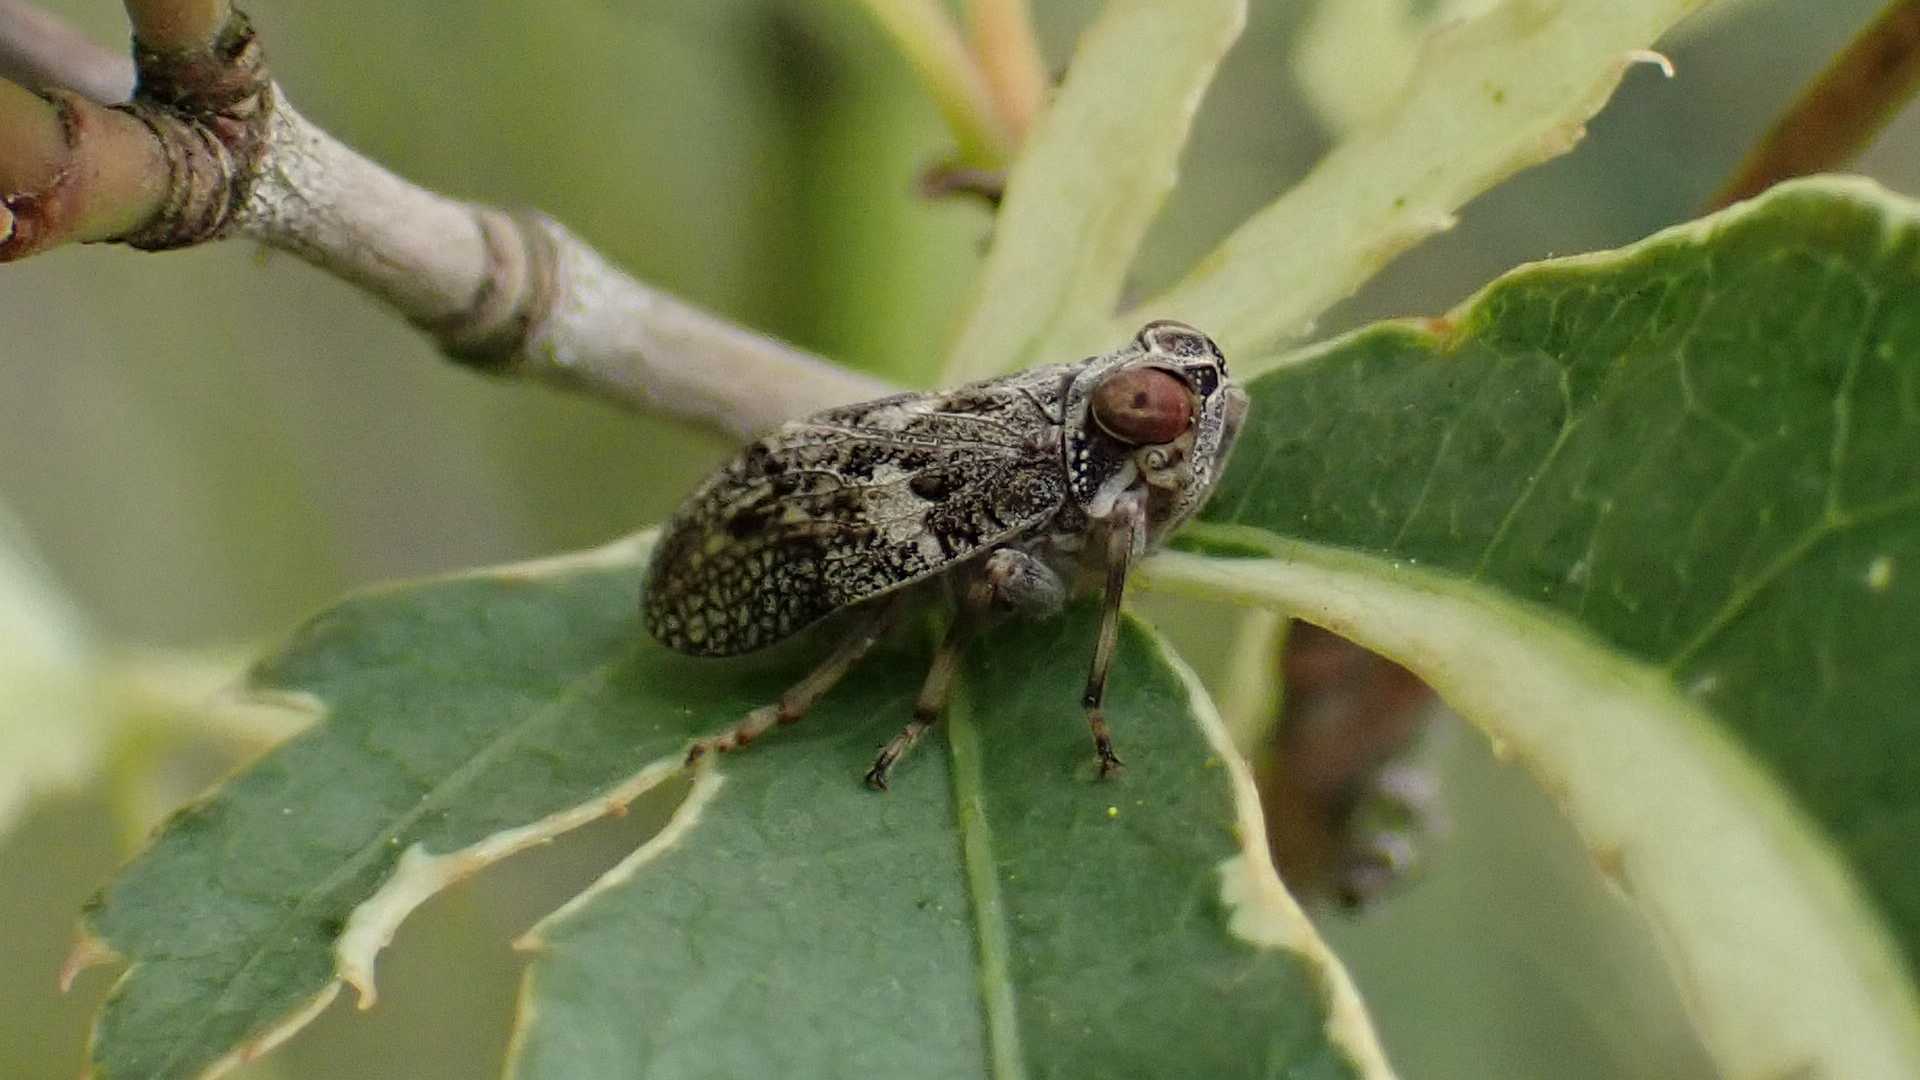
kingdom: Animalia
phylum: Arthropoda
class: Insecta
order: Hemiptera
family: Issidae
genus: Issus
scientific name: Issus coleoptratus
